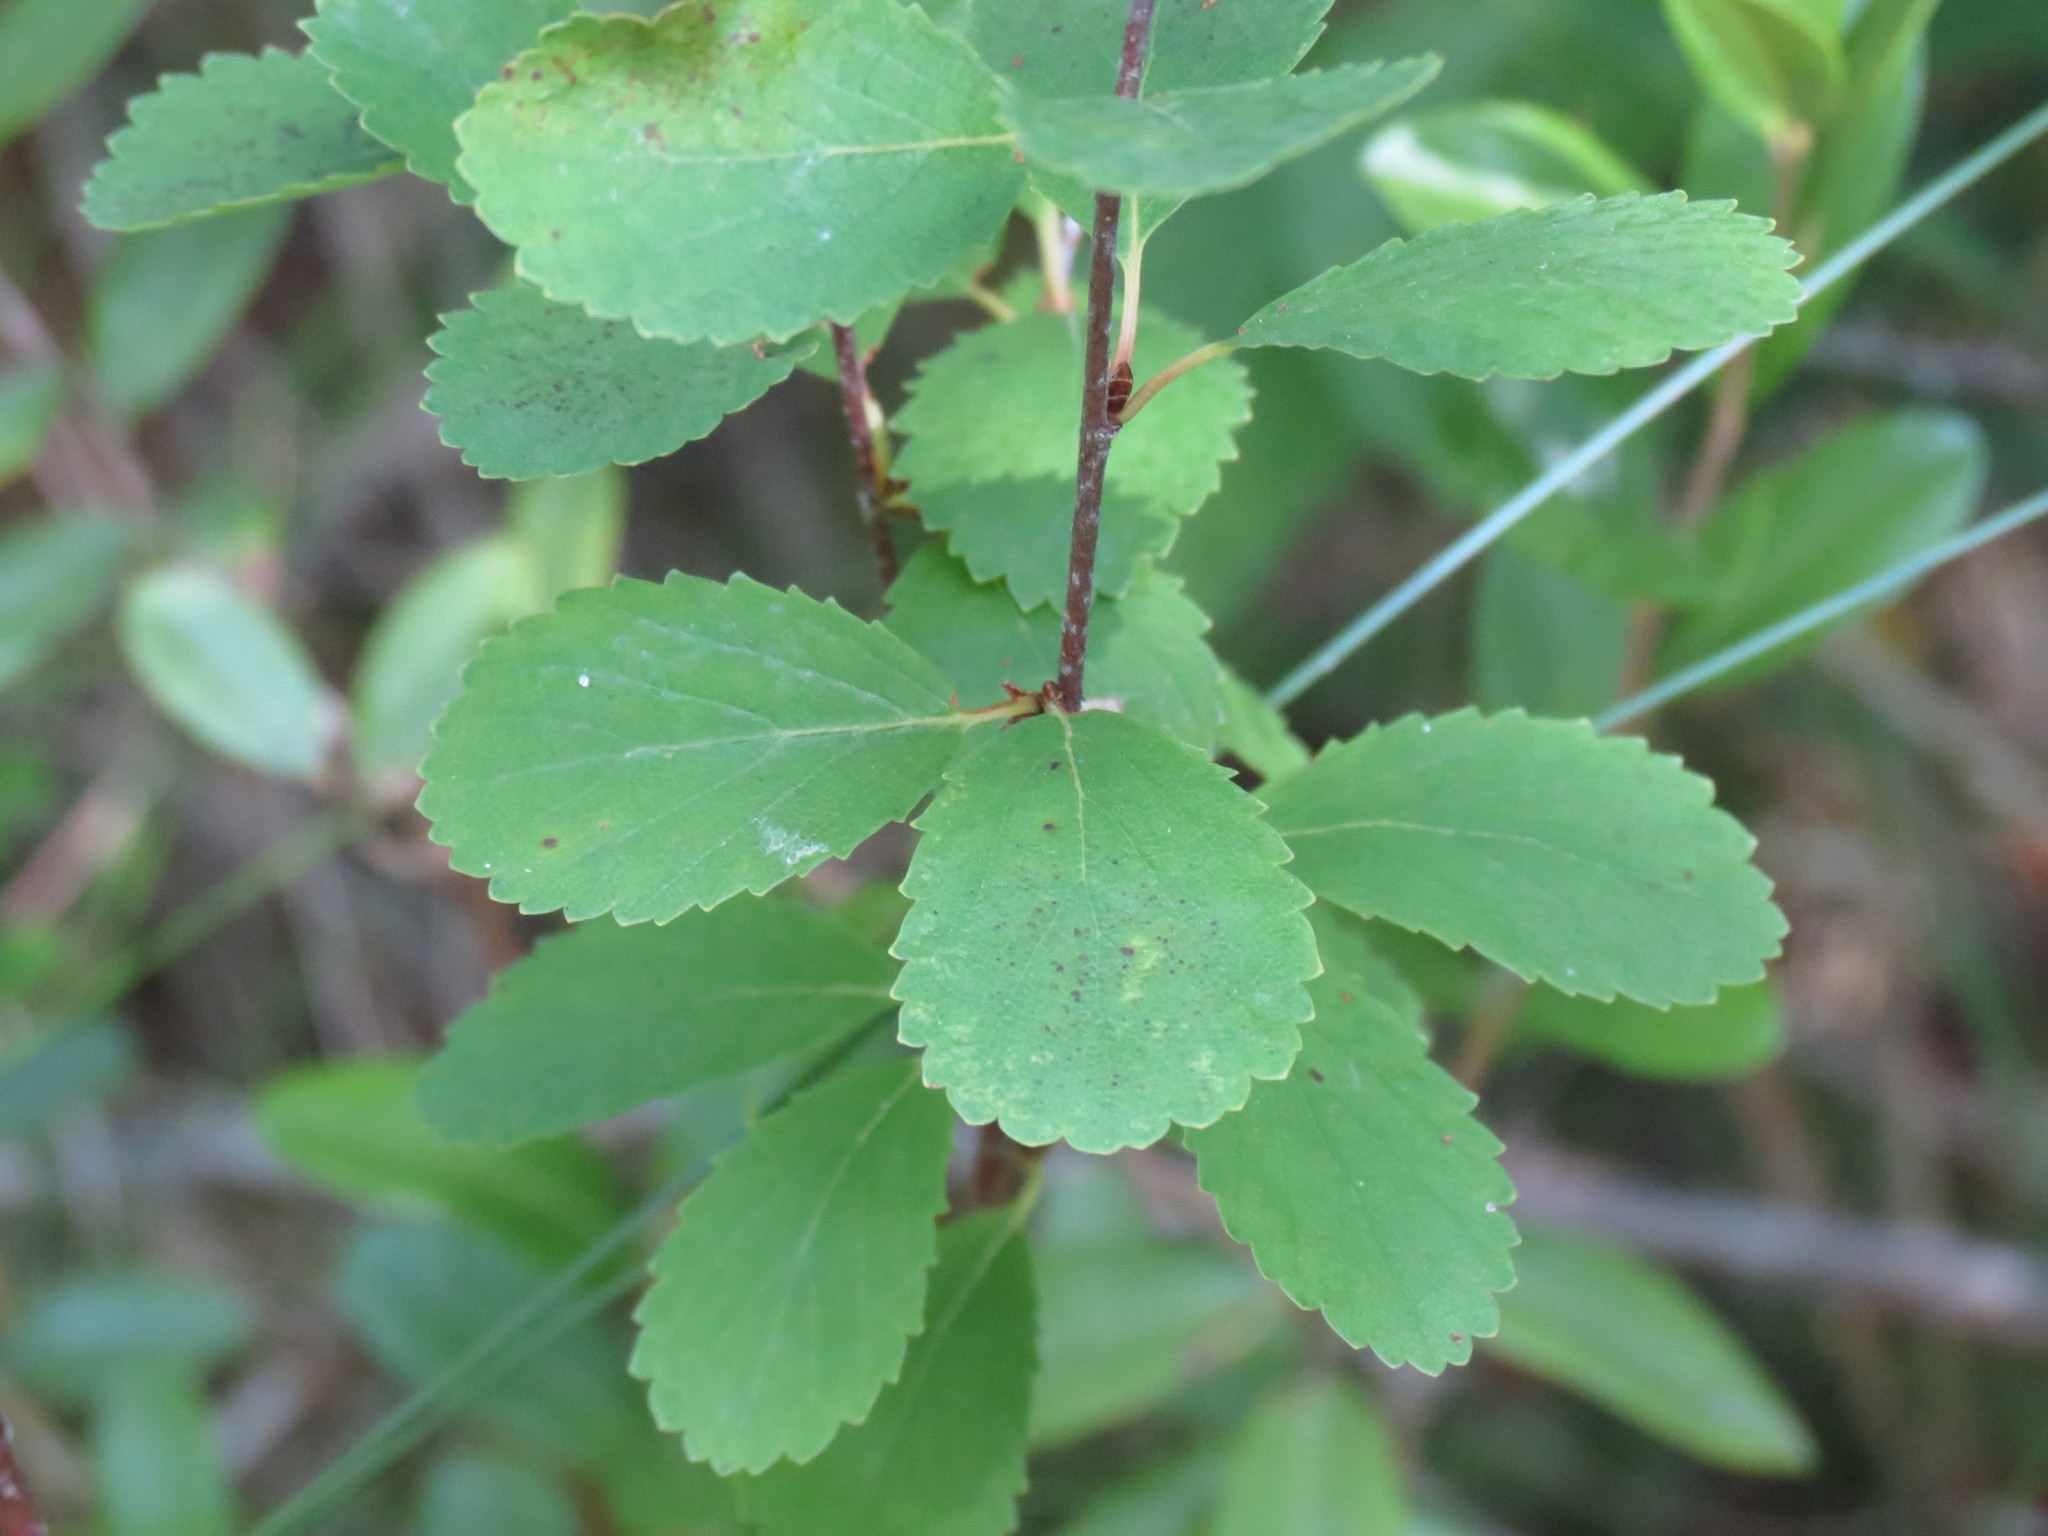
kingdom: Plantae
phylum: Tracheophyta
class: Magnoliopsida
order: Fagales
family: Betulaceae
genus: Betula
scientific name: Betula pumila
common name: Bog birch
